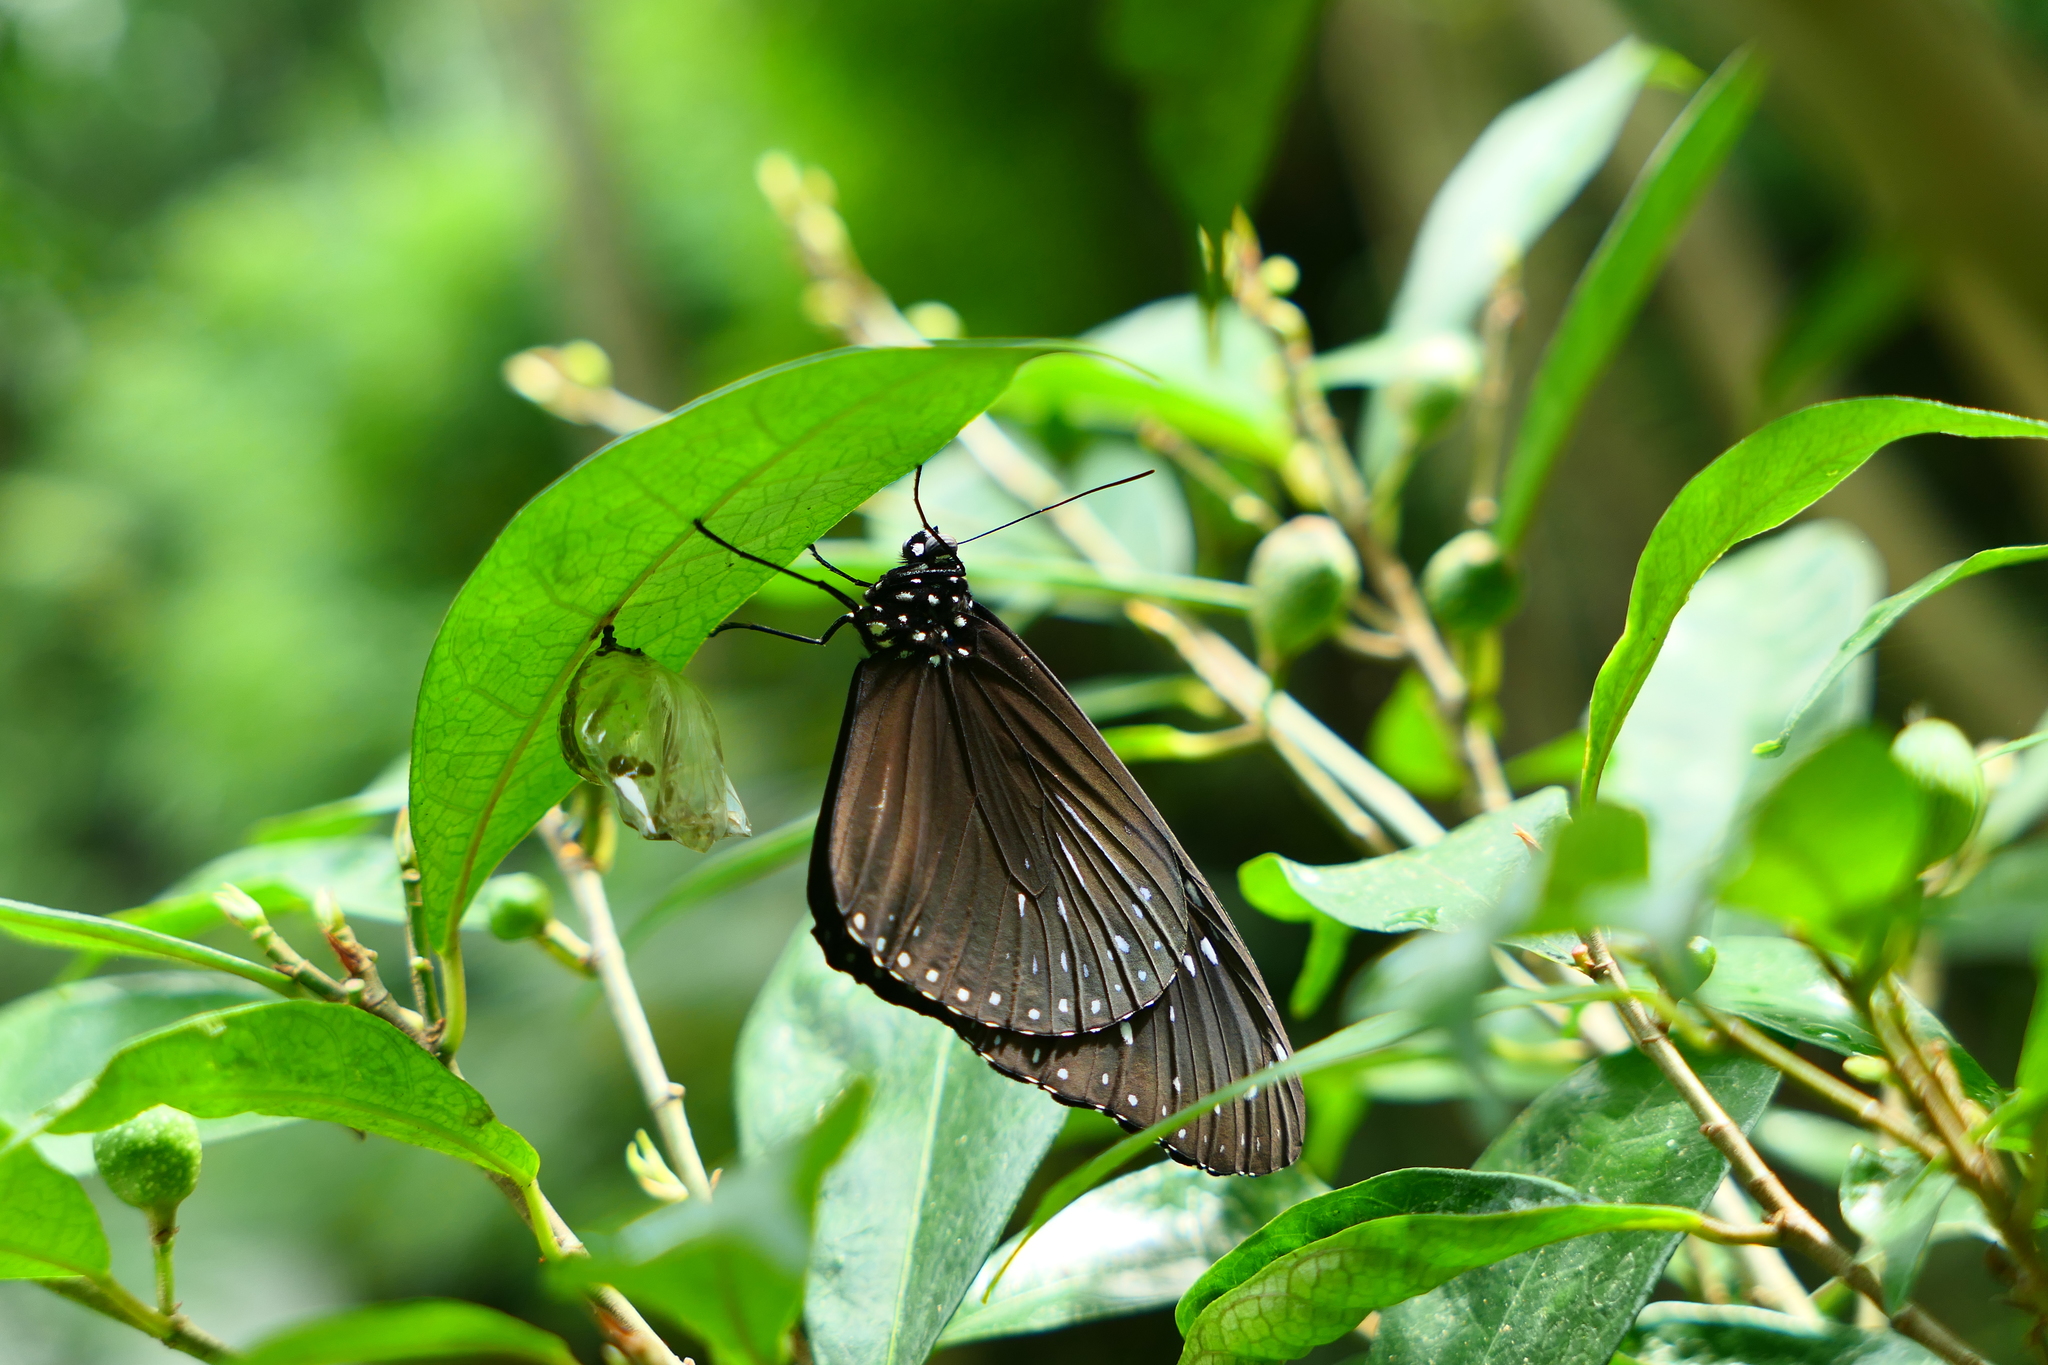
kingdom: Animalia
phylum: Arthropoda
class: Insecta
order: Lepidoptera
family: Nymphalidae
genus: Euploea
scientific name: Euploea mulciber
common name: Striped blue crow butterfly
